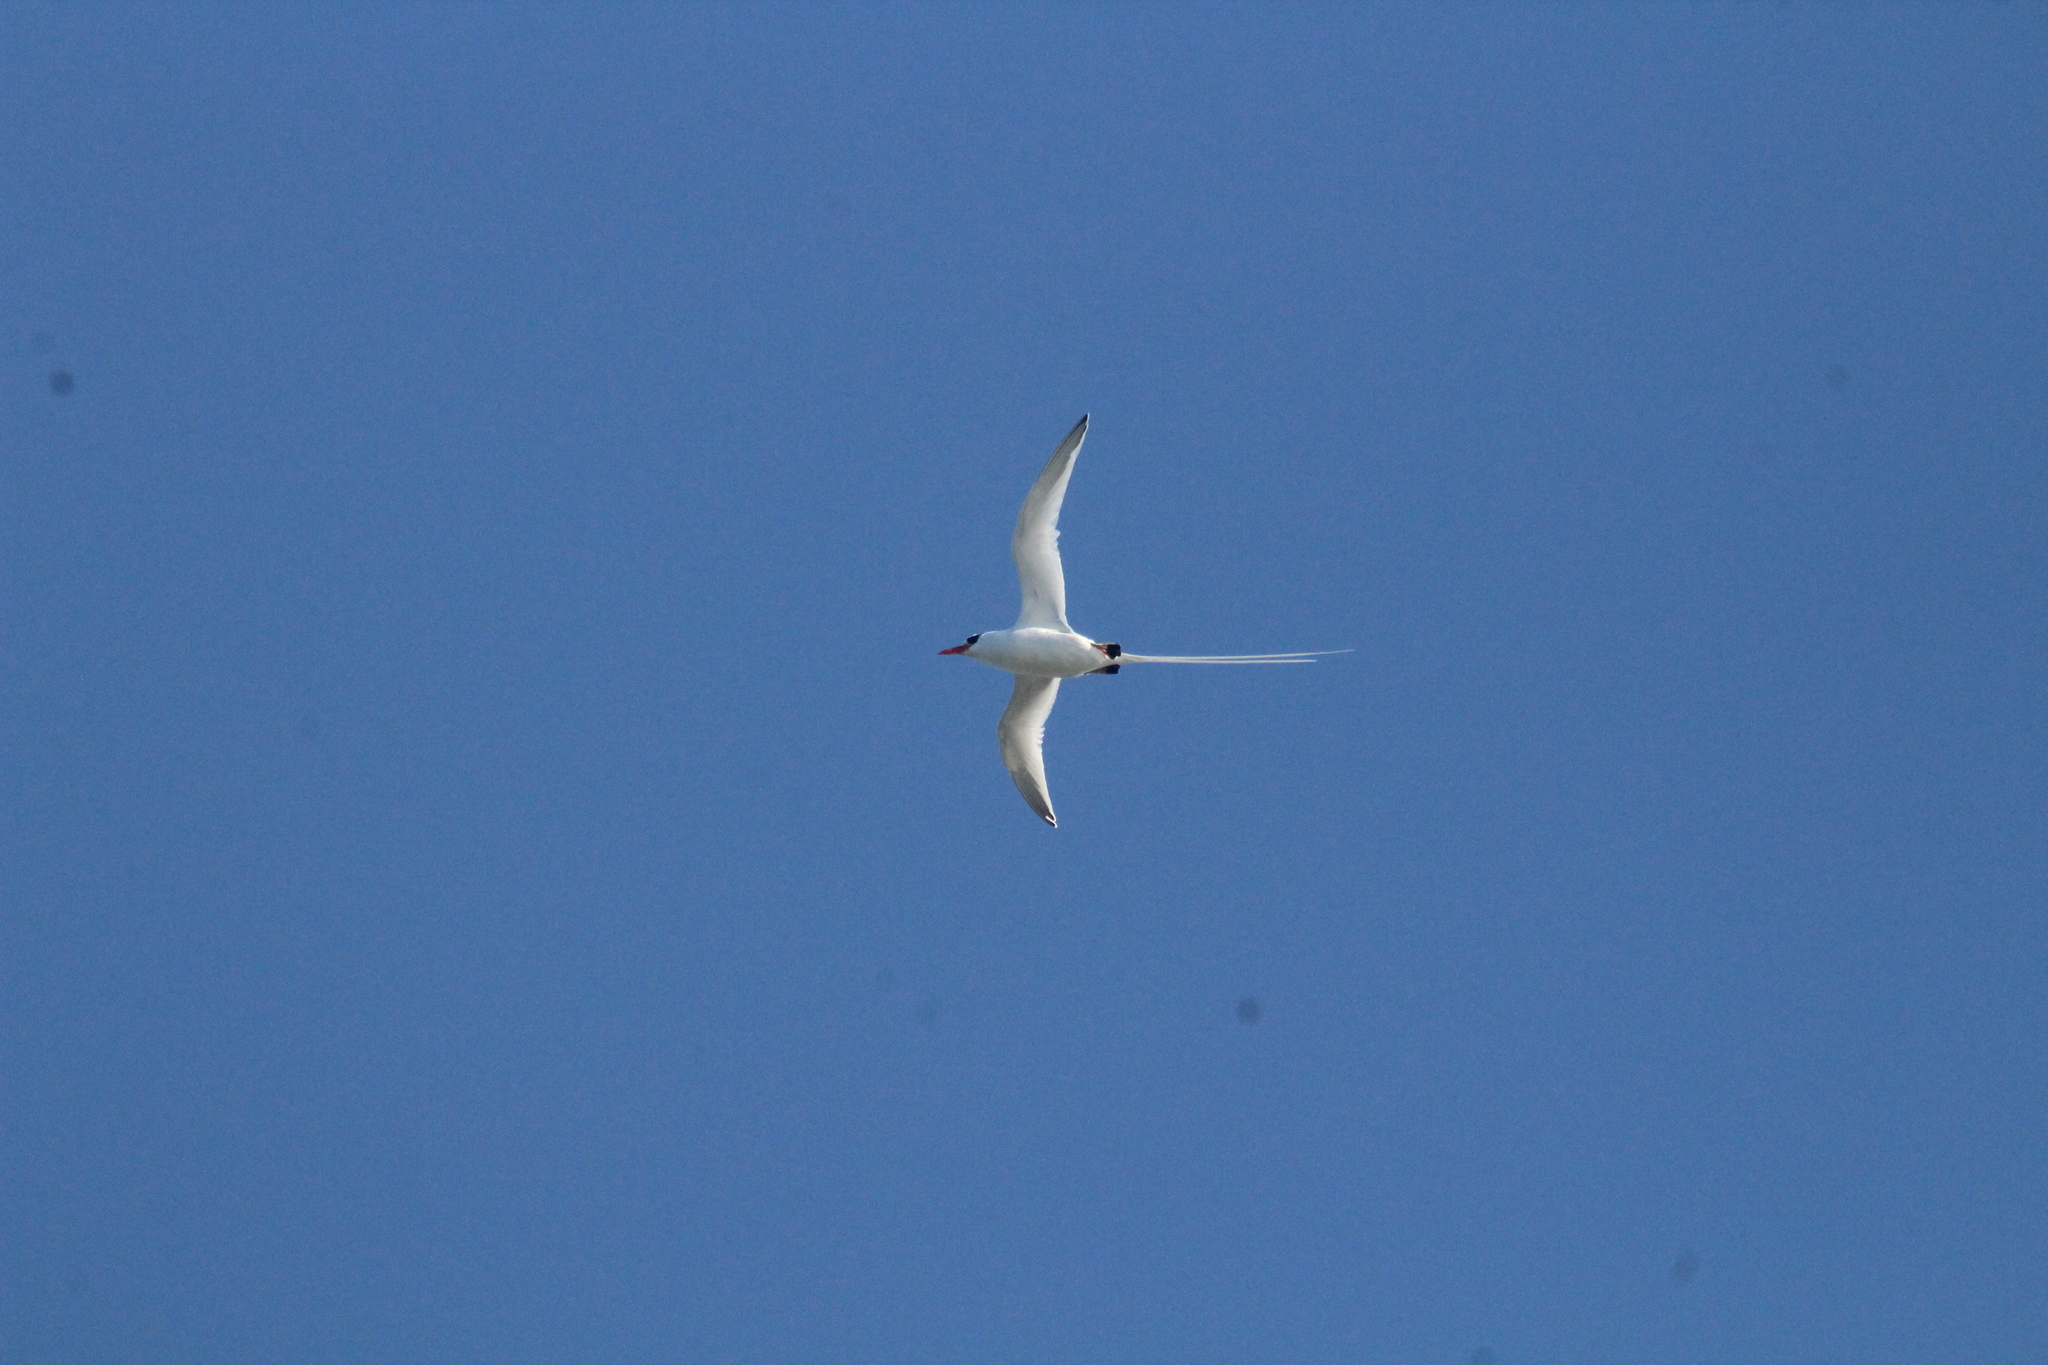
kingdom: Animalia
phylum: Chordata
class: Aves
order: Phaethontiformes
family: Phaethontidae
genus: Phaethon
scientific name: Phaethon aethereus
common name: Red-billed tropicbird
